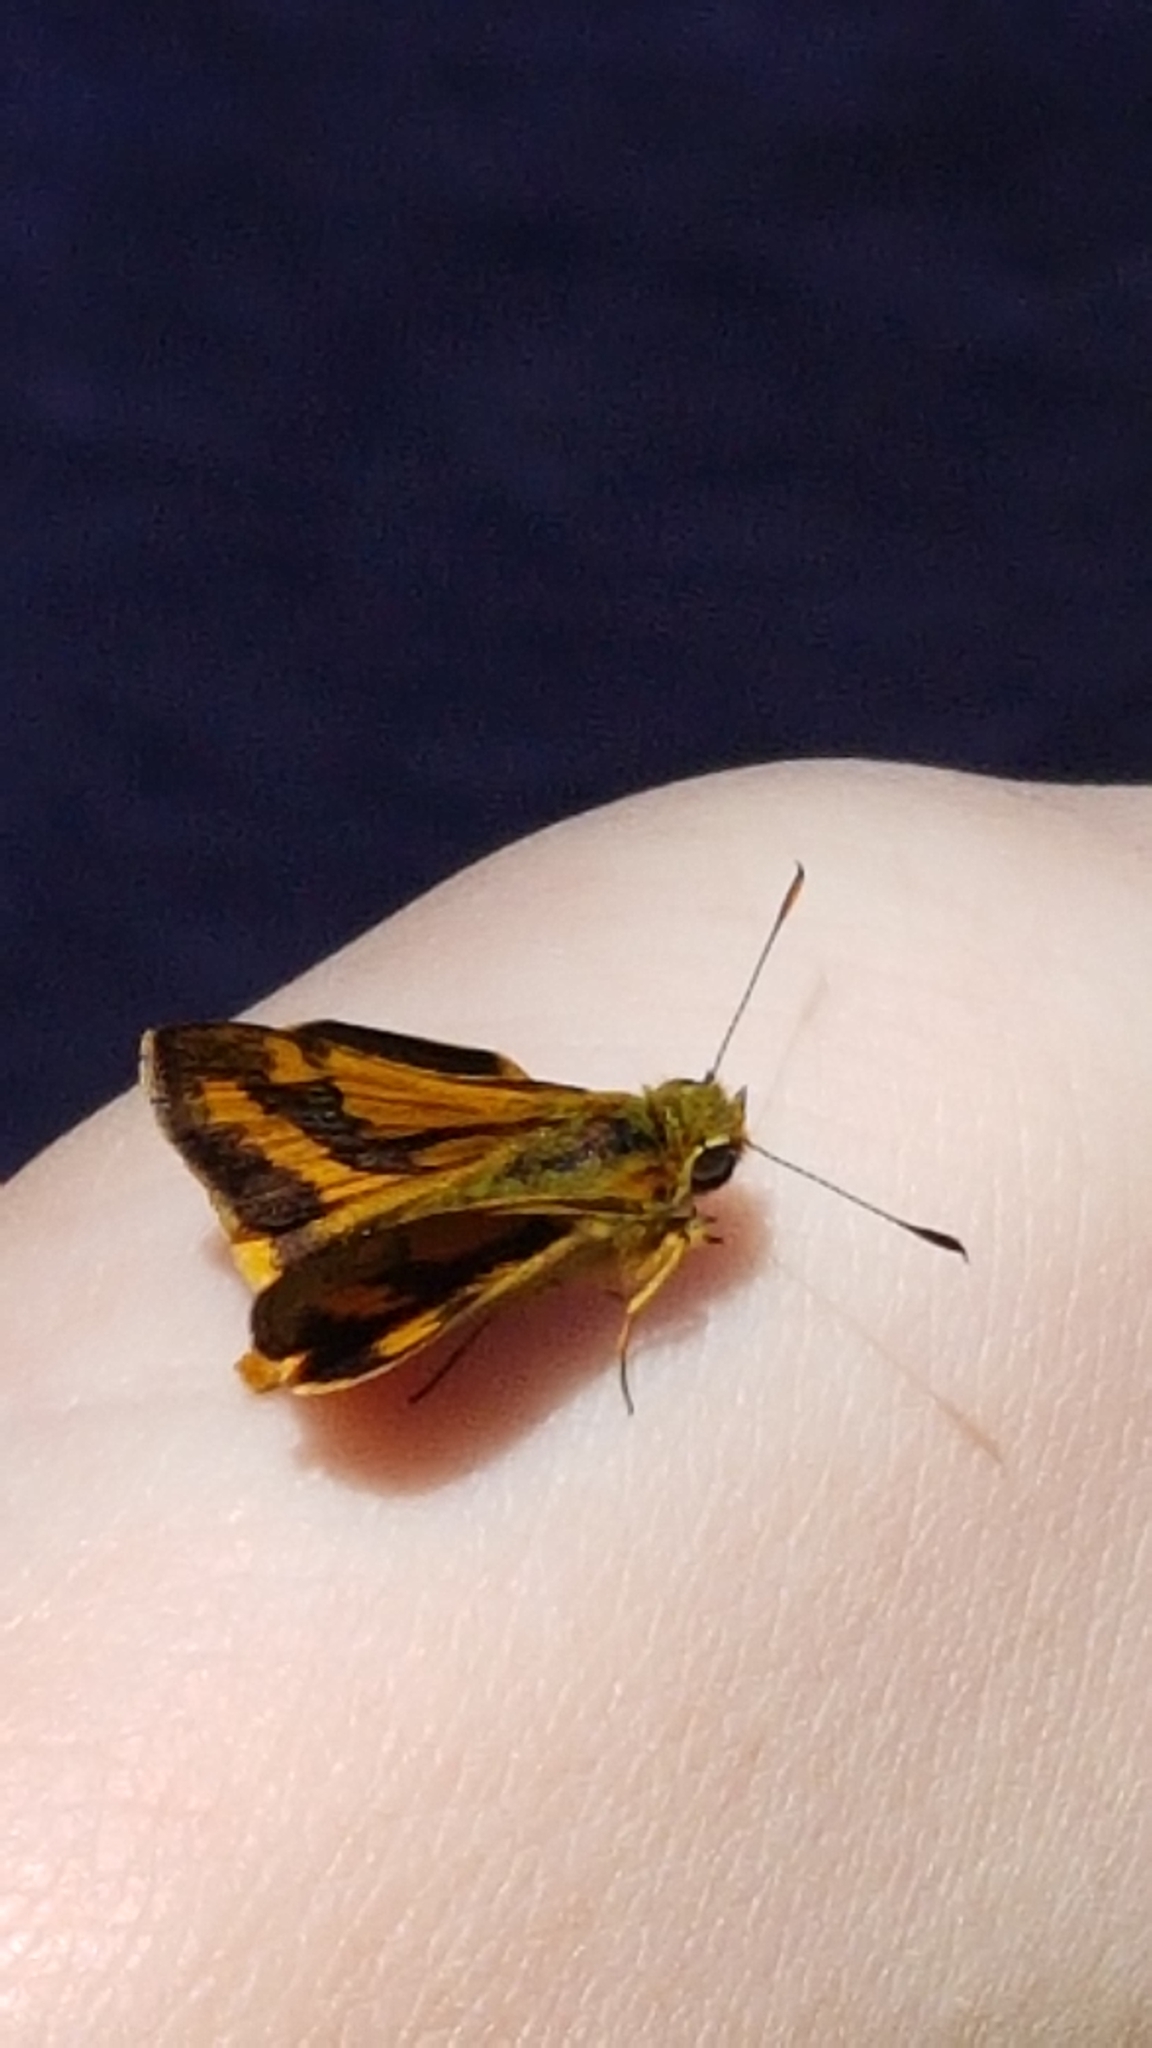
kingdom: Animalia
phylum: Arthropoda
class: Insecta
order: Lepidoptera
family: Hesperiidae
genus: Ocybadistes
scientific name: Ocybadistes walkeri
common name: Yellow-banded dart
